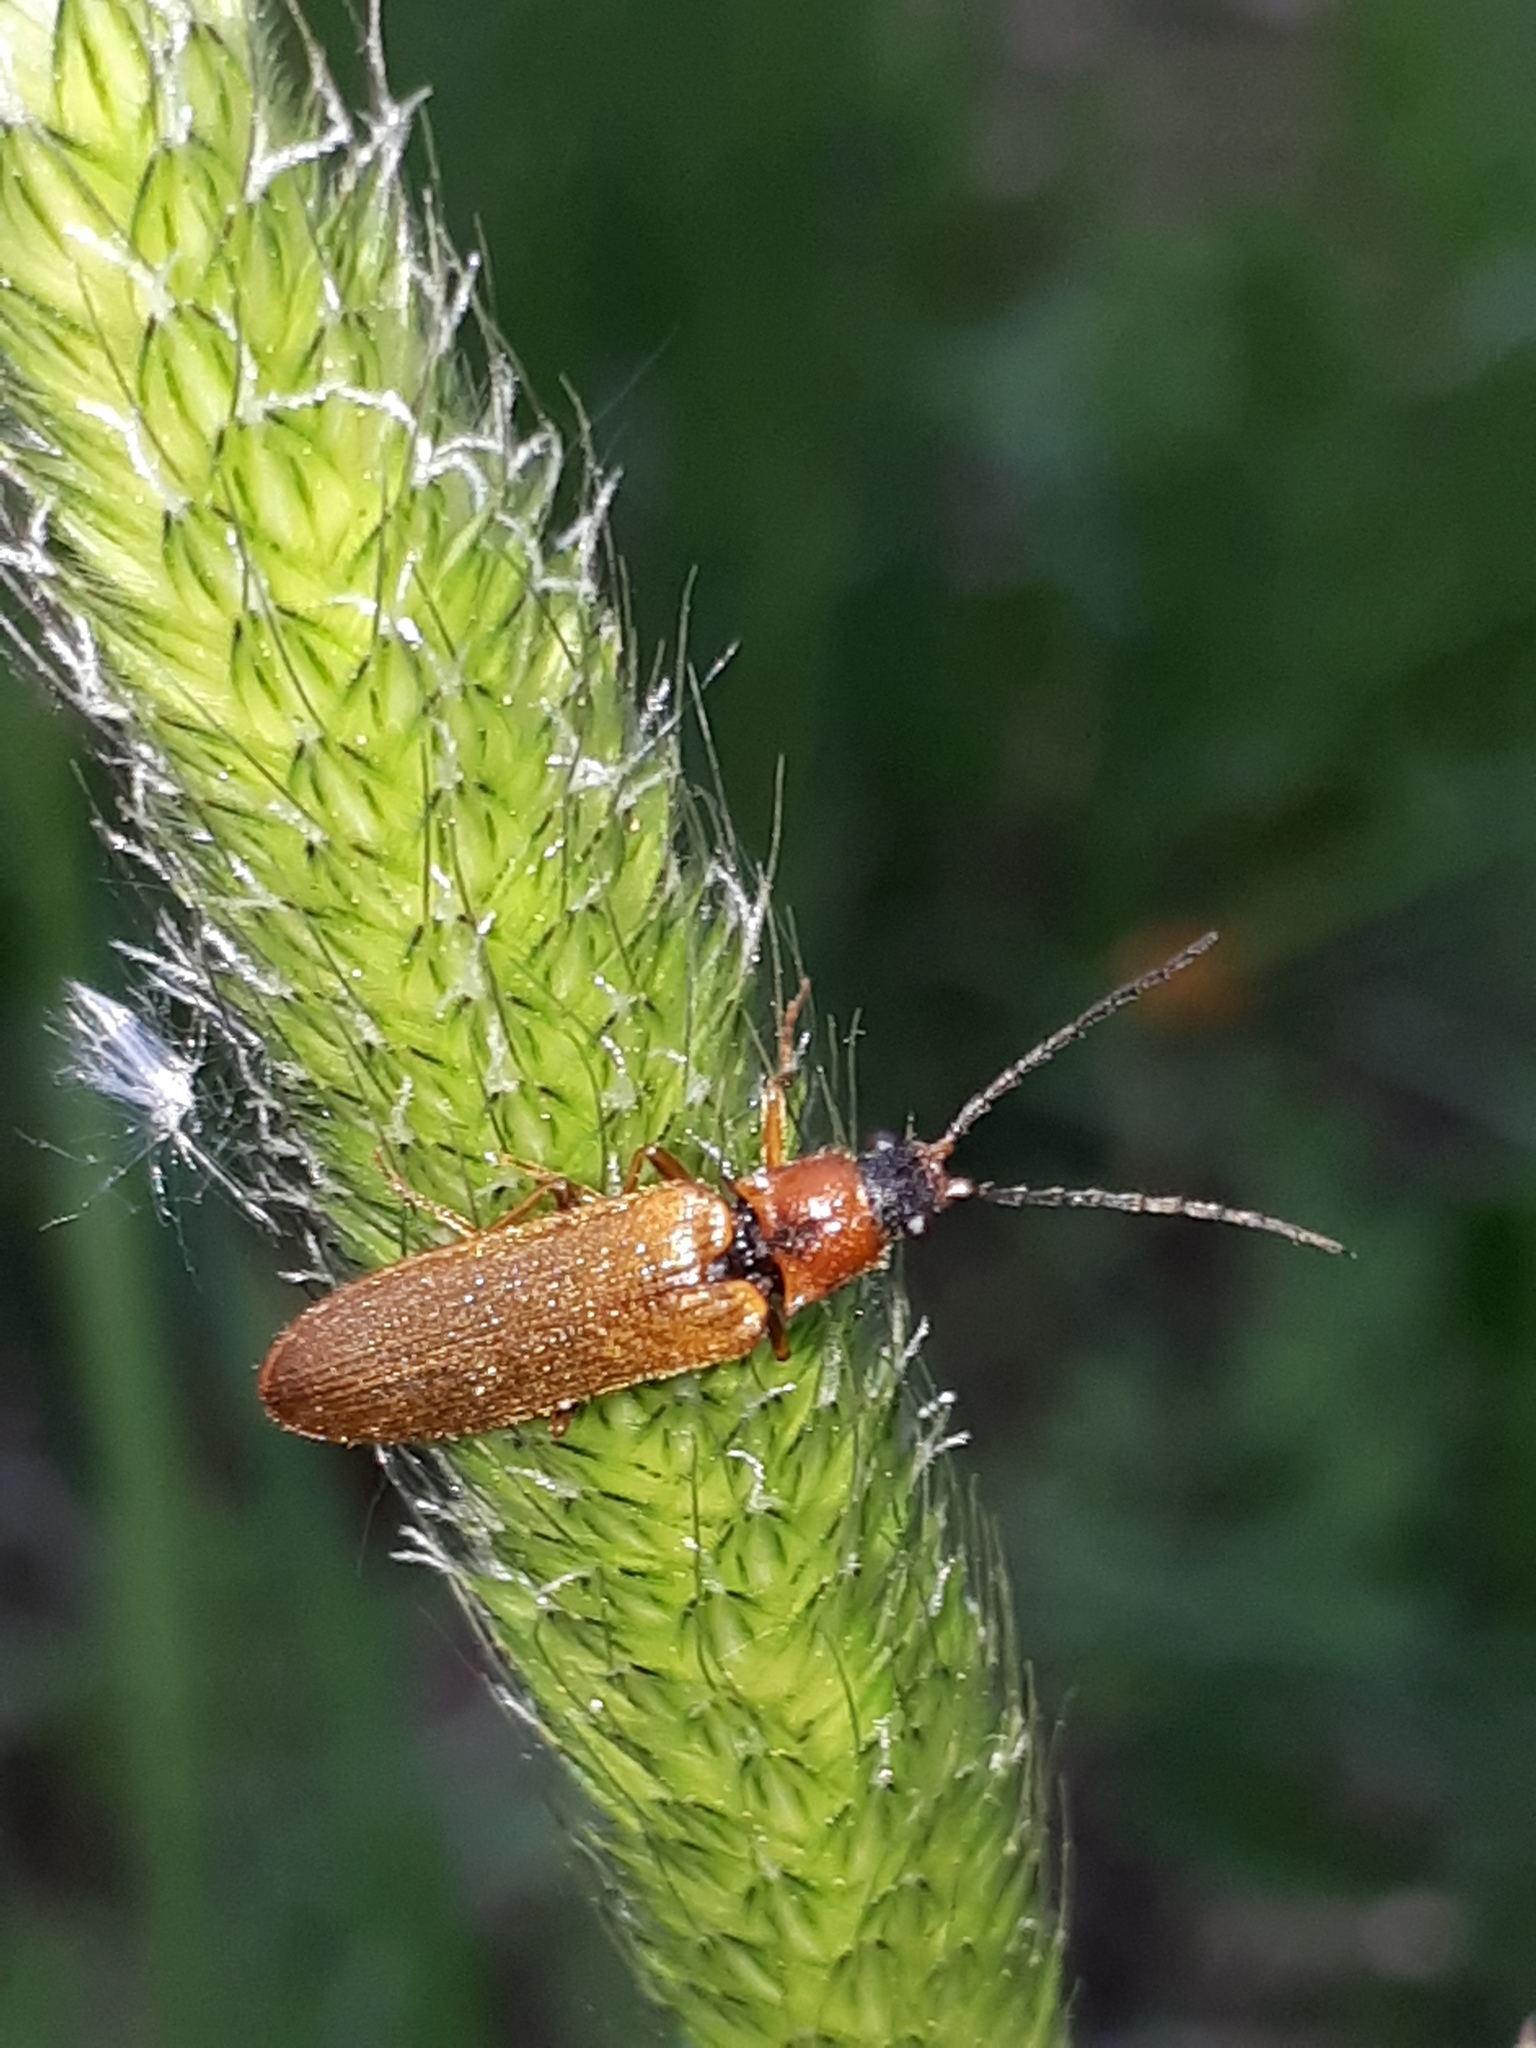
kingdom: Animalia
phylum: Arthropoda
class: Insecta
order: Coleoptera
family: Elateridae
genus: Denticollis
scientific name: Denticollis linearis
